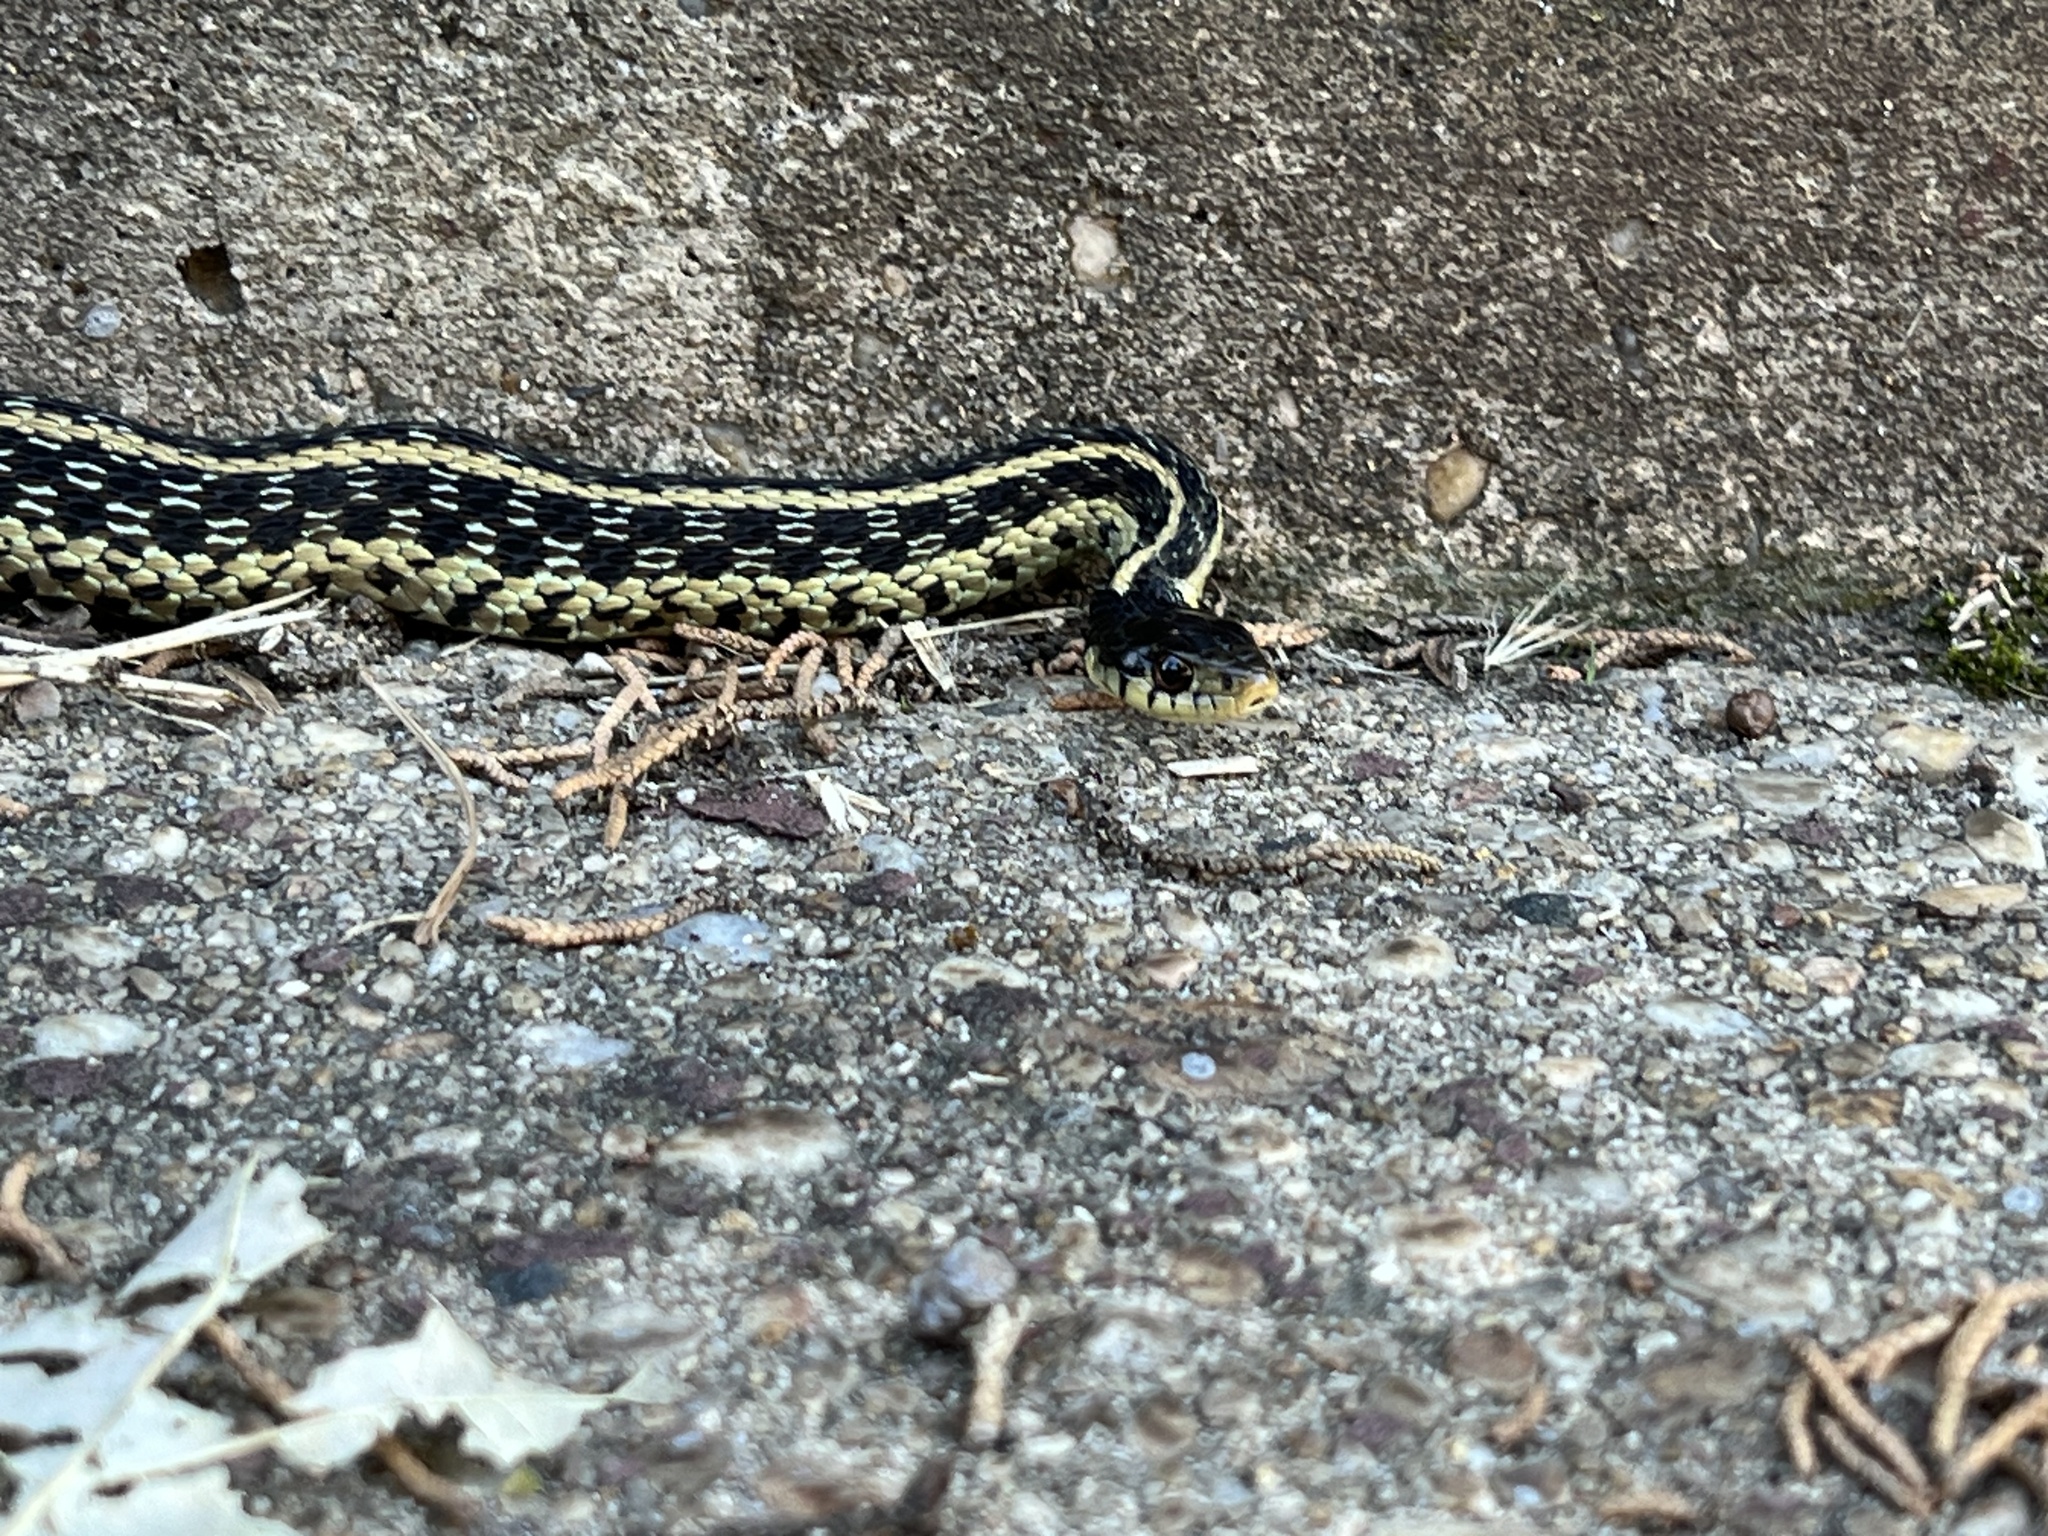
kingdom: Animalia
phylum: Chordata
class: Squamata
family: Colubridae
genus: Thamnophis
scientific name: Thamnophis sirtalis
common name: Common garter snake
